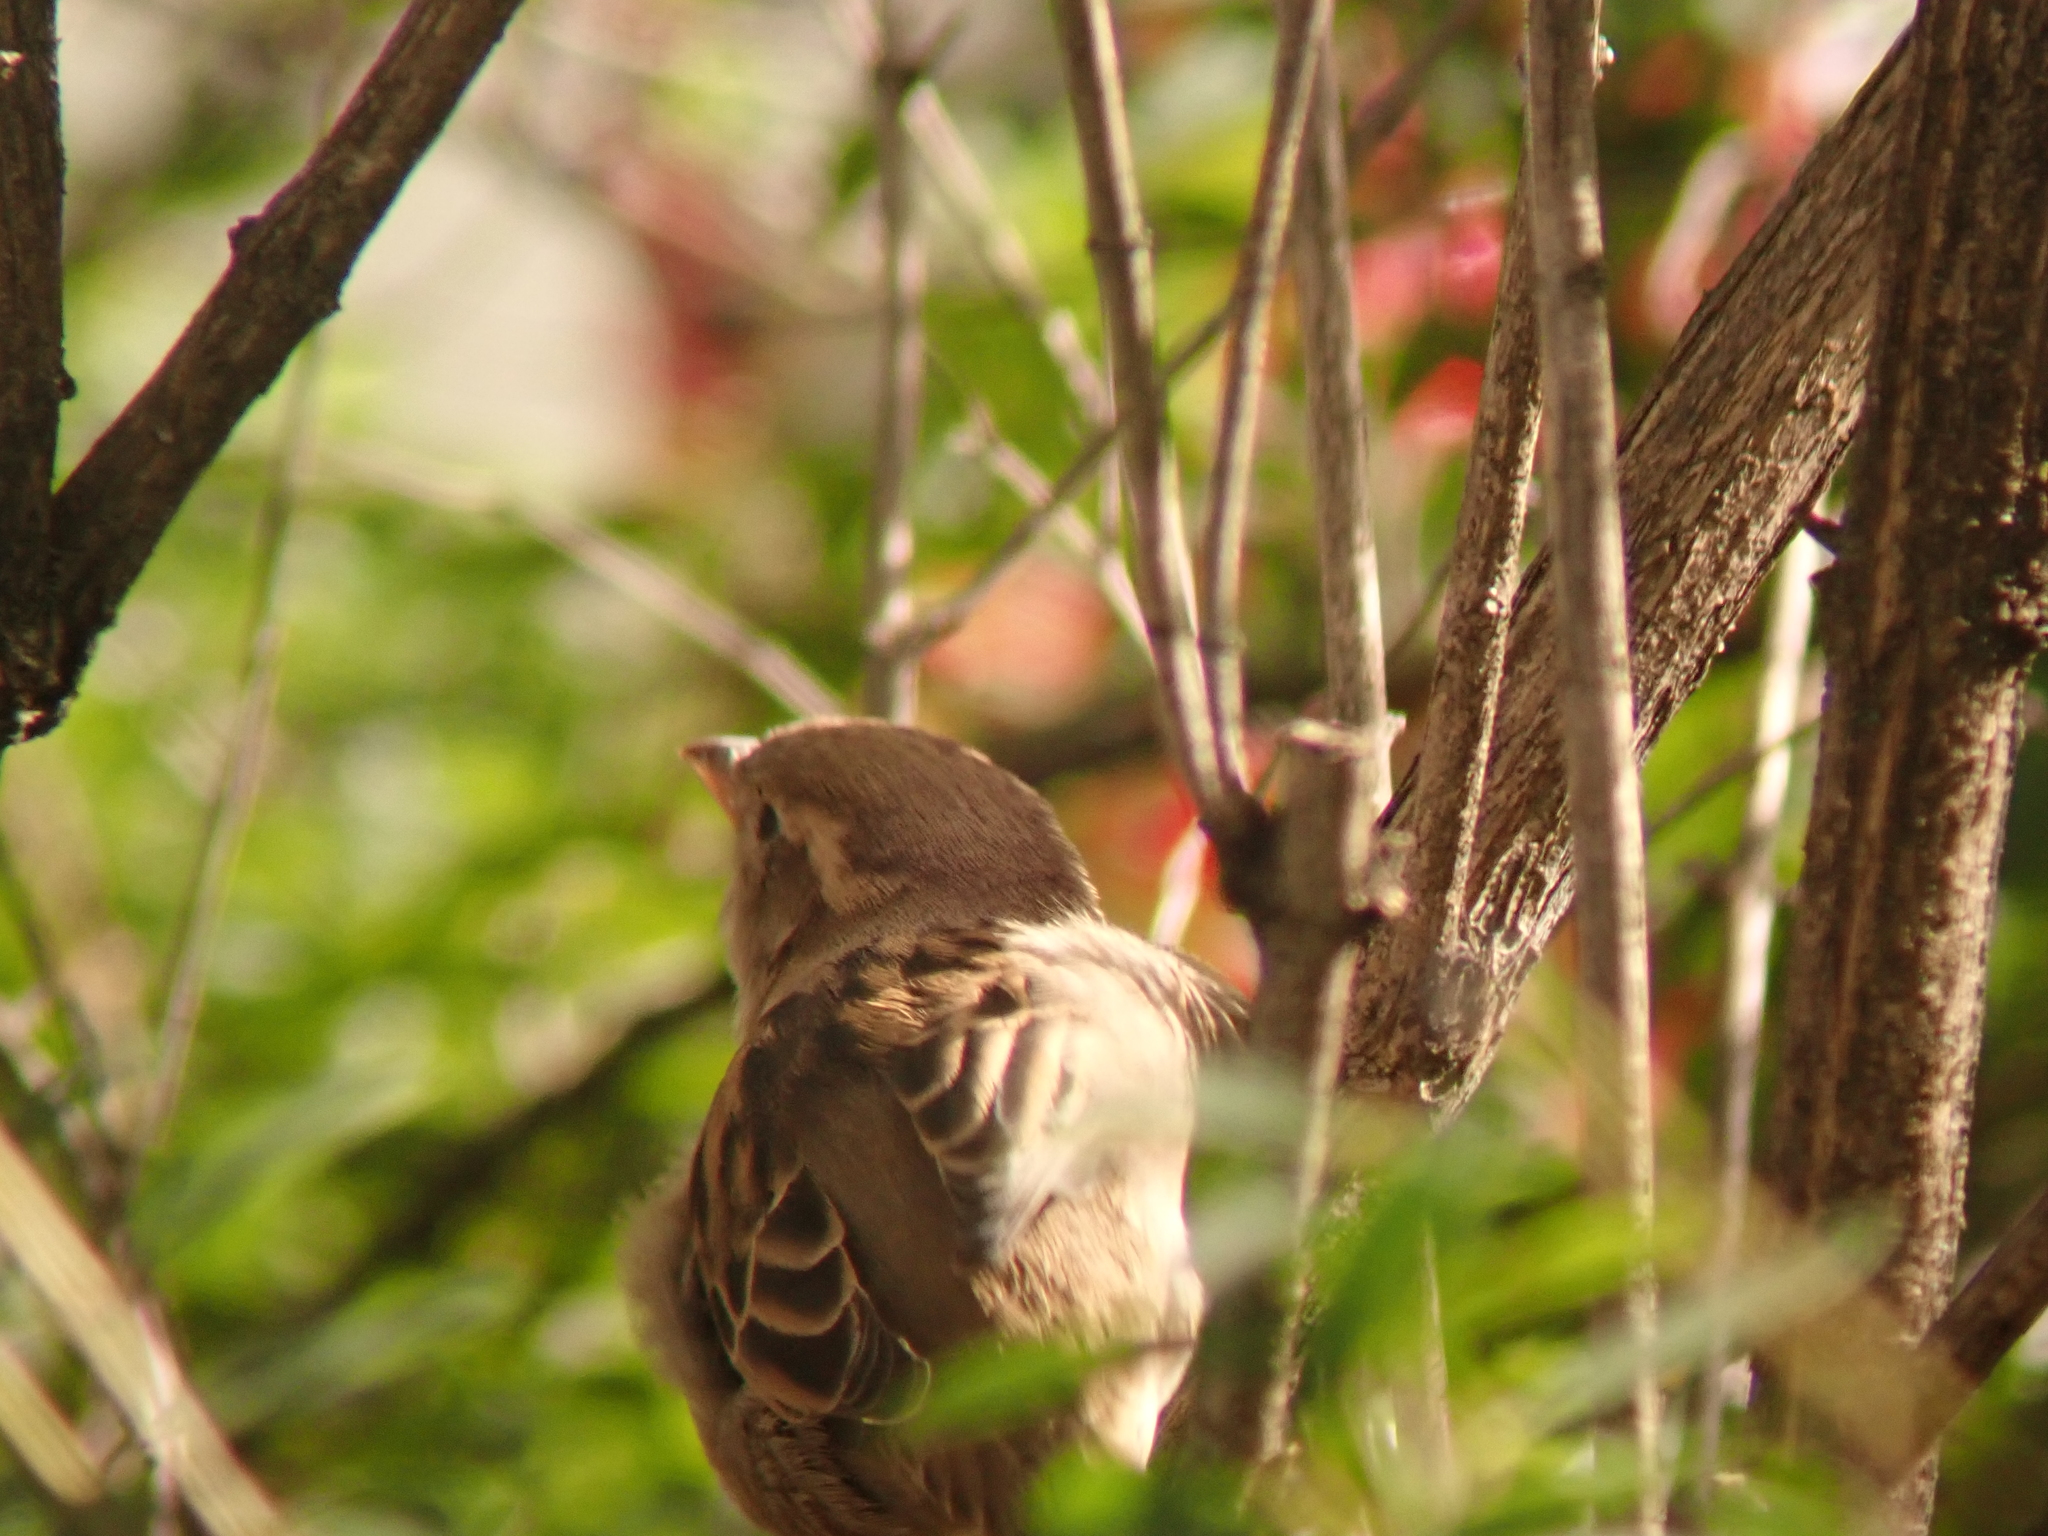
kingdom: Animalia
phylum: Chordata
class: Aves
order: Passeriformes
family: Passeridae
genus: Passer
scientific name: Passer domesticus
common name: House sparrow
